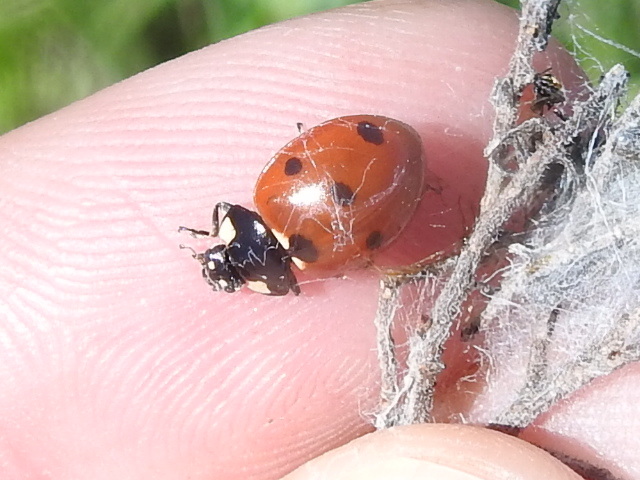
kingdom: Animalia
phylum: Arthropoda
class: Insecta
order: Coleoptera
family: Coccinellidae
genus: Coccinella
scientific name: Coccinella septempunctata
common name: Sevenspotted lady beetle
